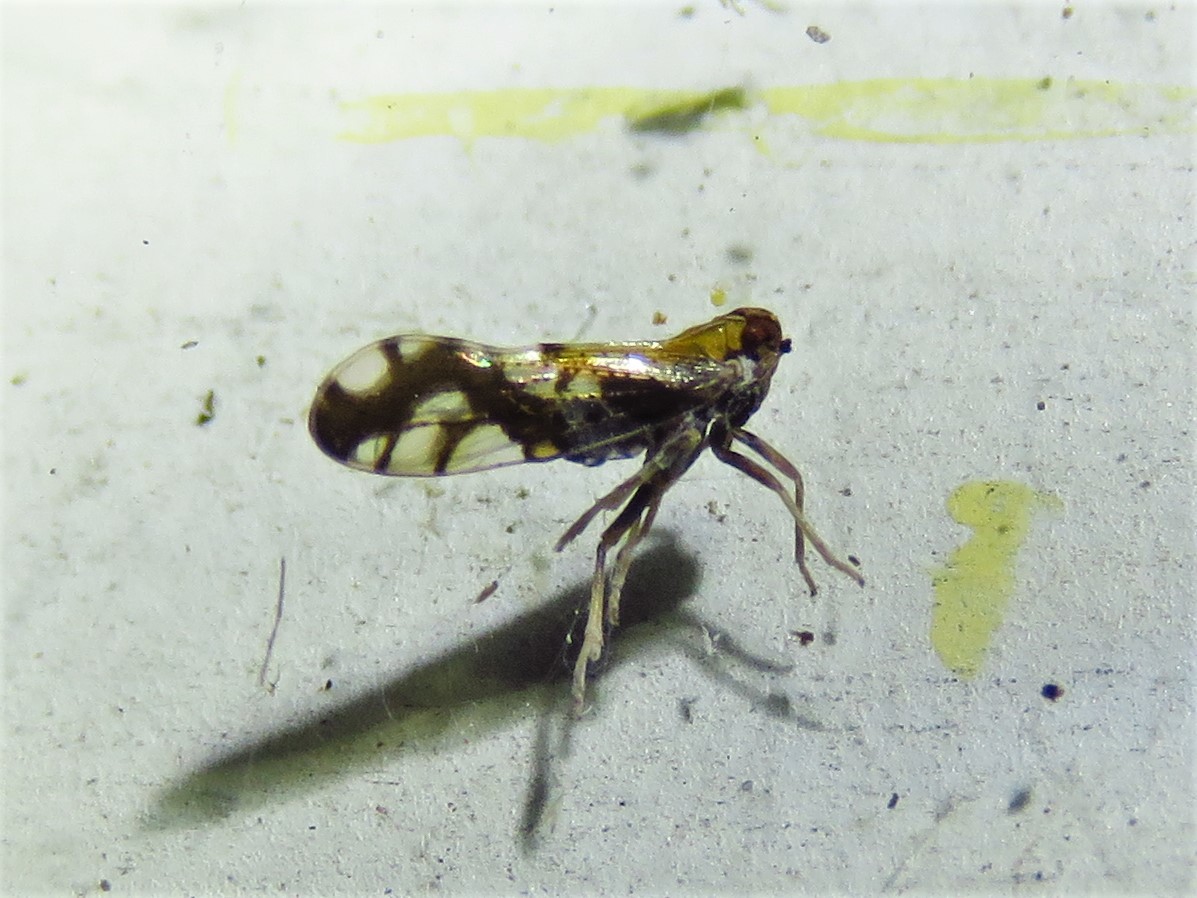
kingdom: Animalia
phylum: Arthropoda
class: Insecta
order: Hemiptera
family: Delphacidae
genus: Liburniella
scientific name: Liburniella ornata
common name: Ornate planthopper
